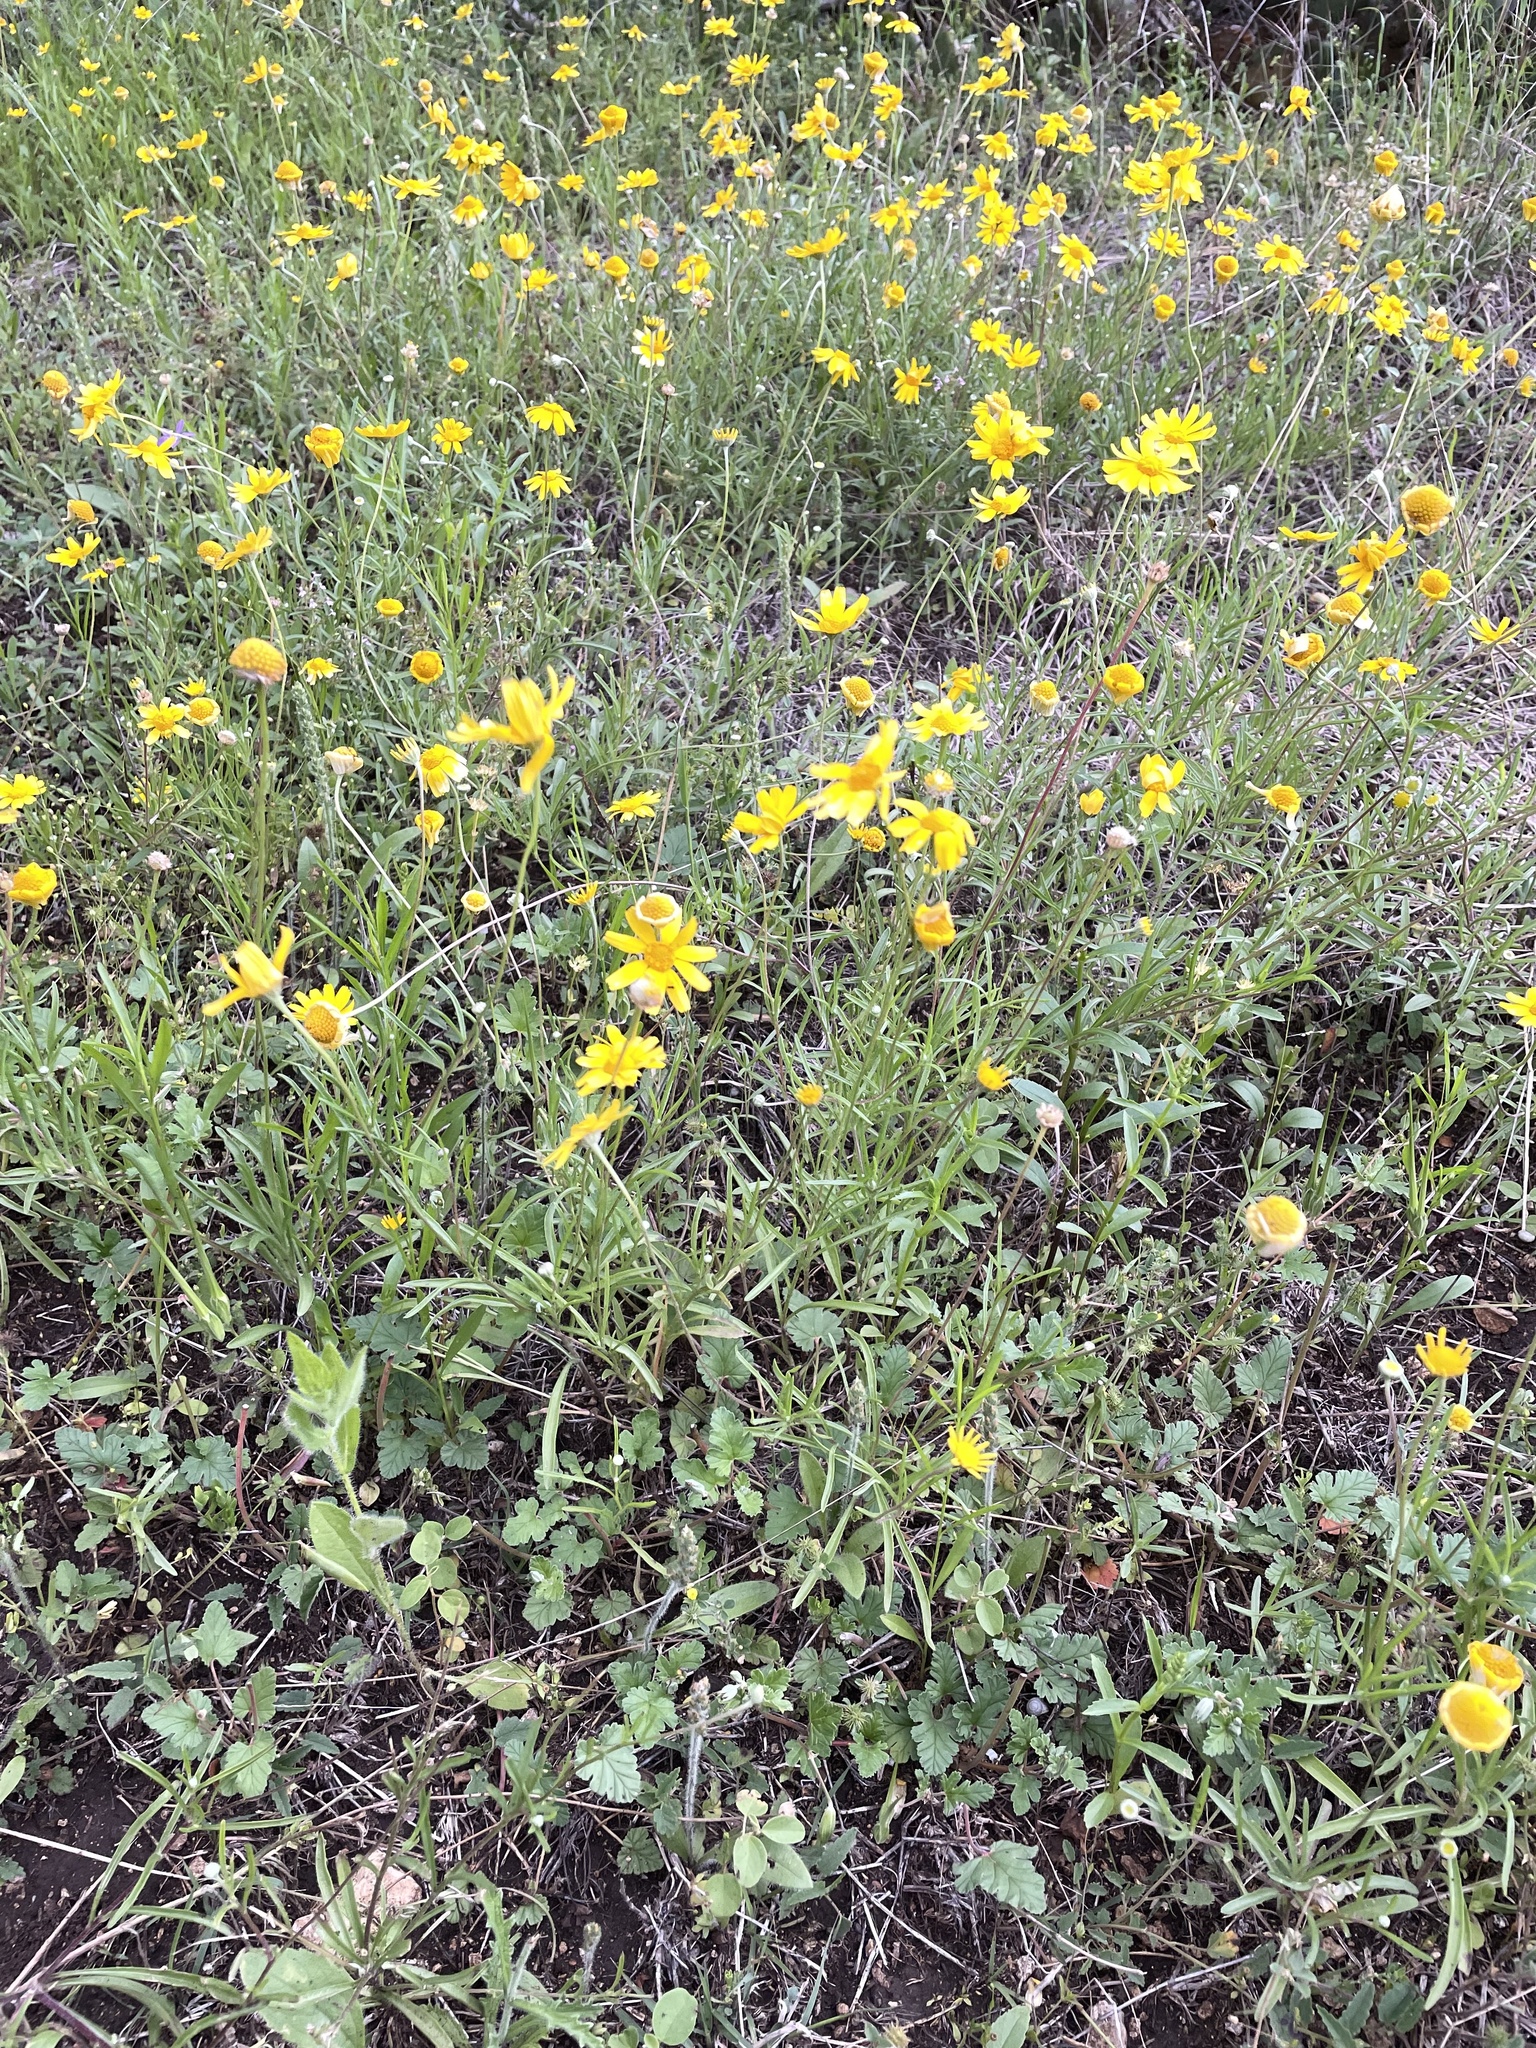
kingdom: Plantae
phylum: Tracheophyta
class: Magnoliopsida
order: Asterales
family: Asteraceae
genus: Tetraneuris
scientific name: Tetraneuris linearifolia
